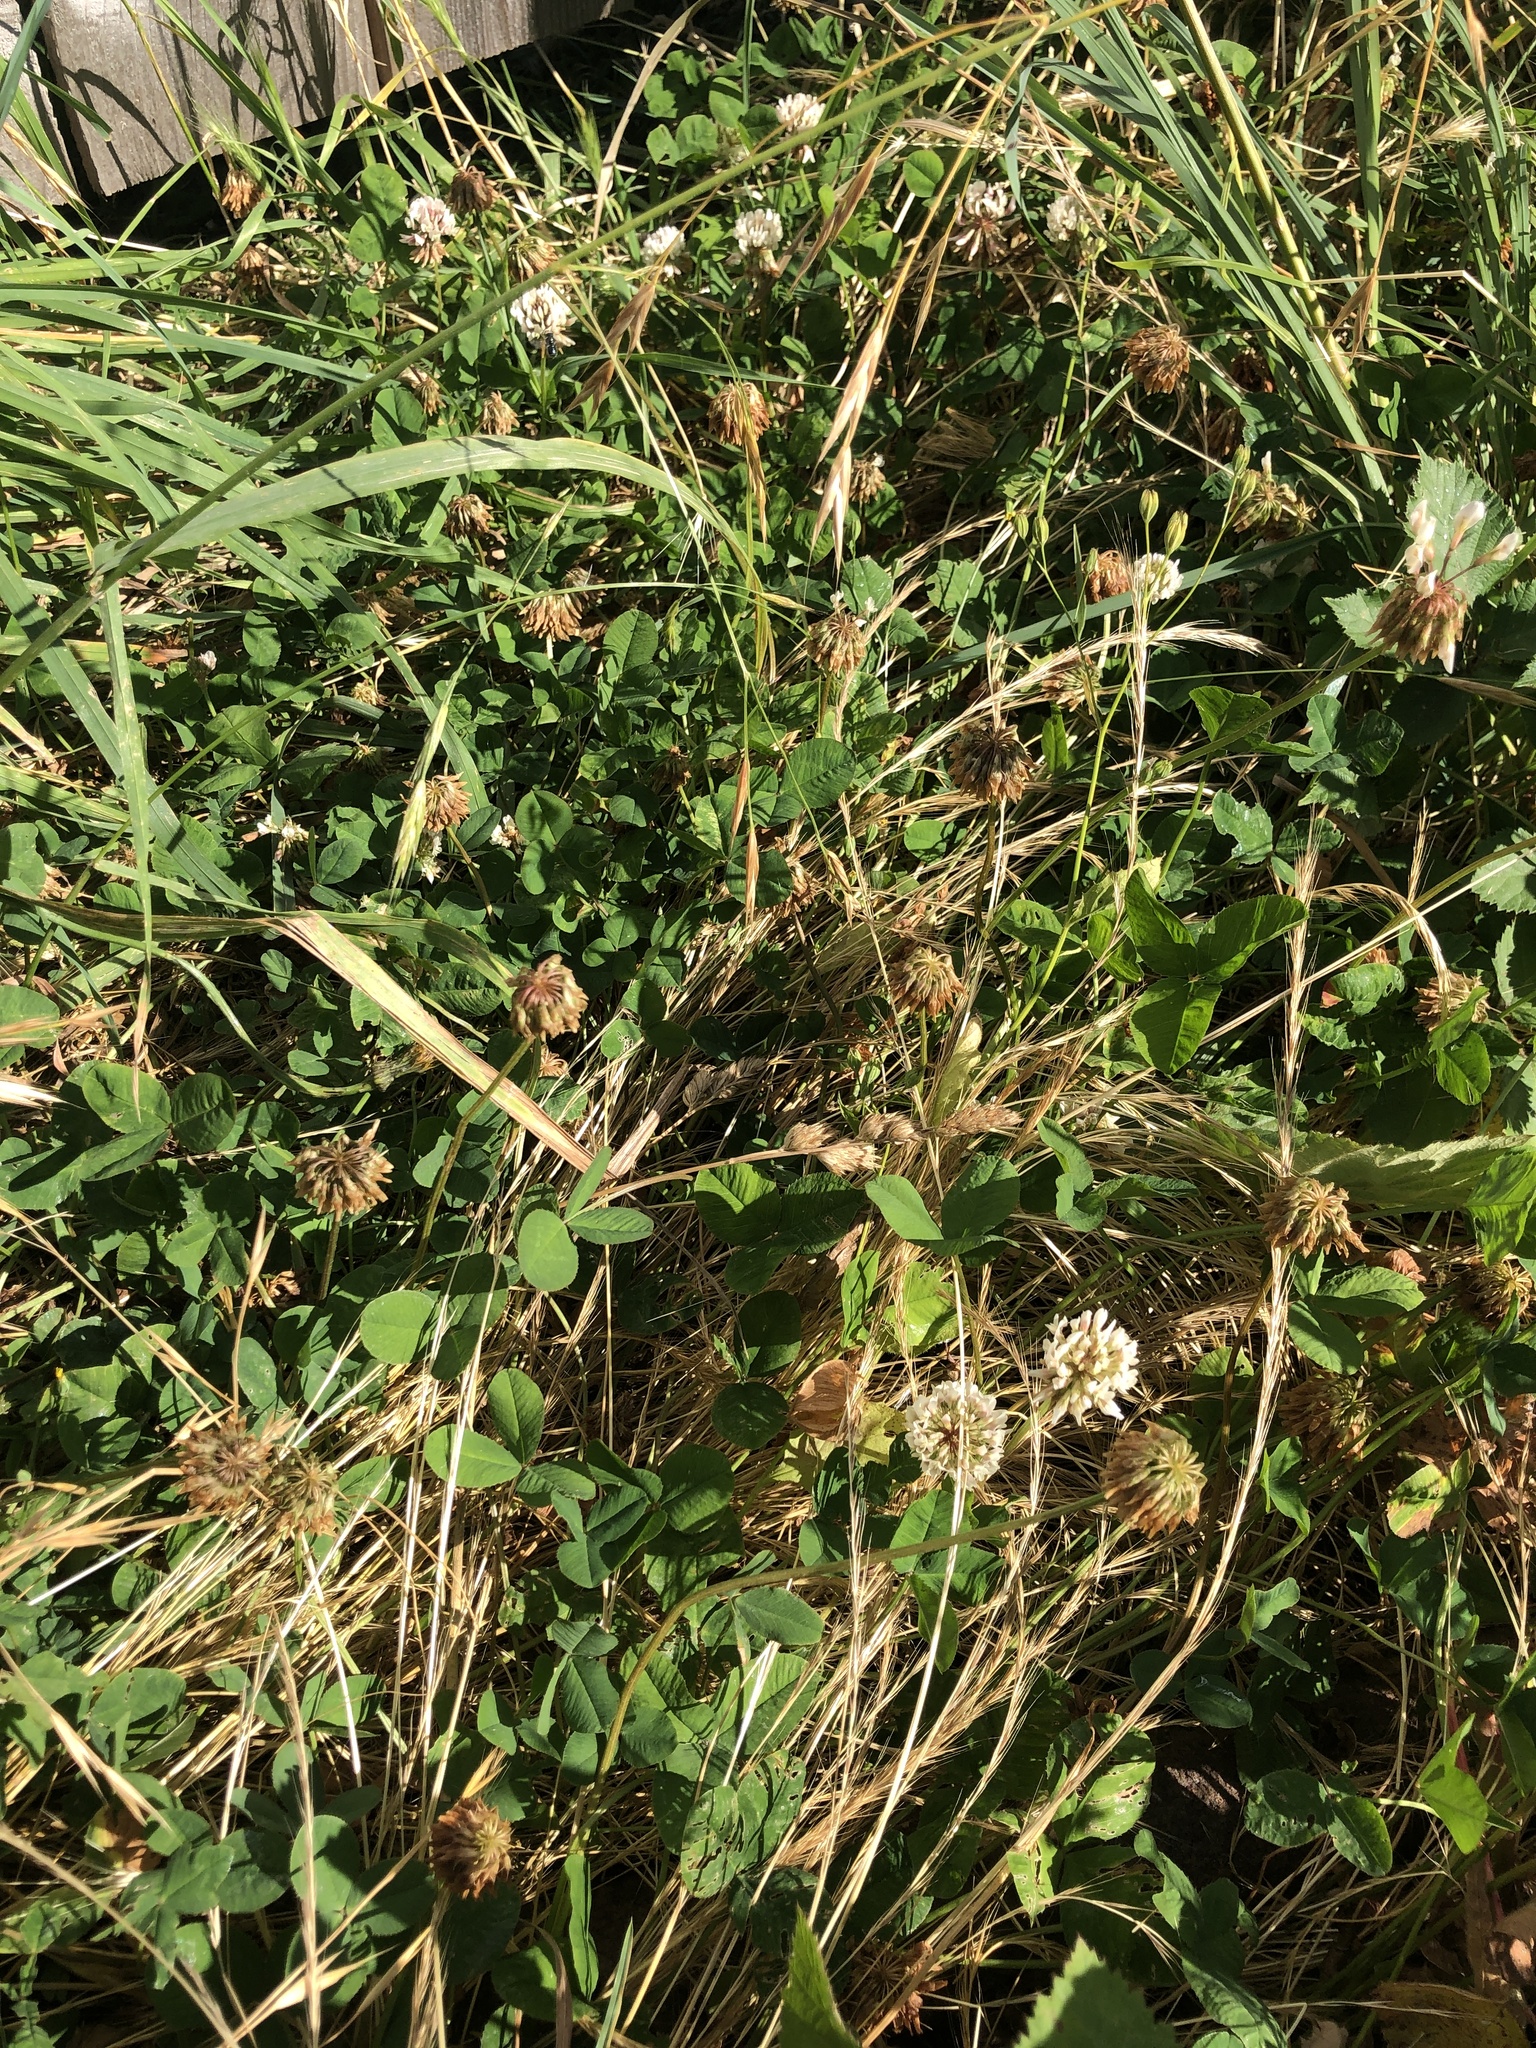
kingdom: Plantae
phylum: Tracheophyta
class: Magnoliopsida
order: Fabales
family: Fabaceae
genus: Trifolium
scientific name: Trifolium repens
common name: White clover
